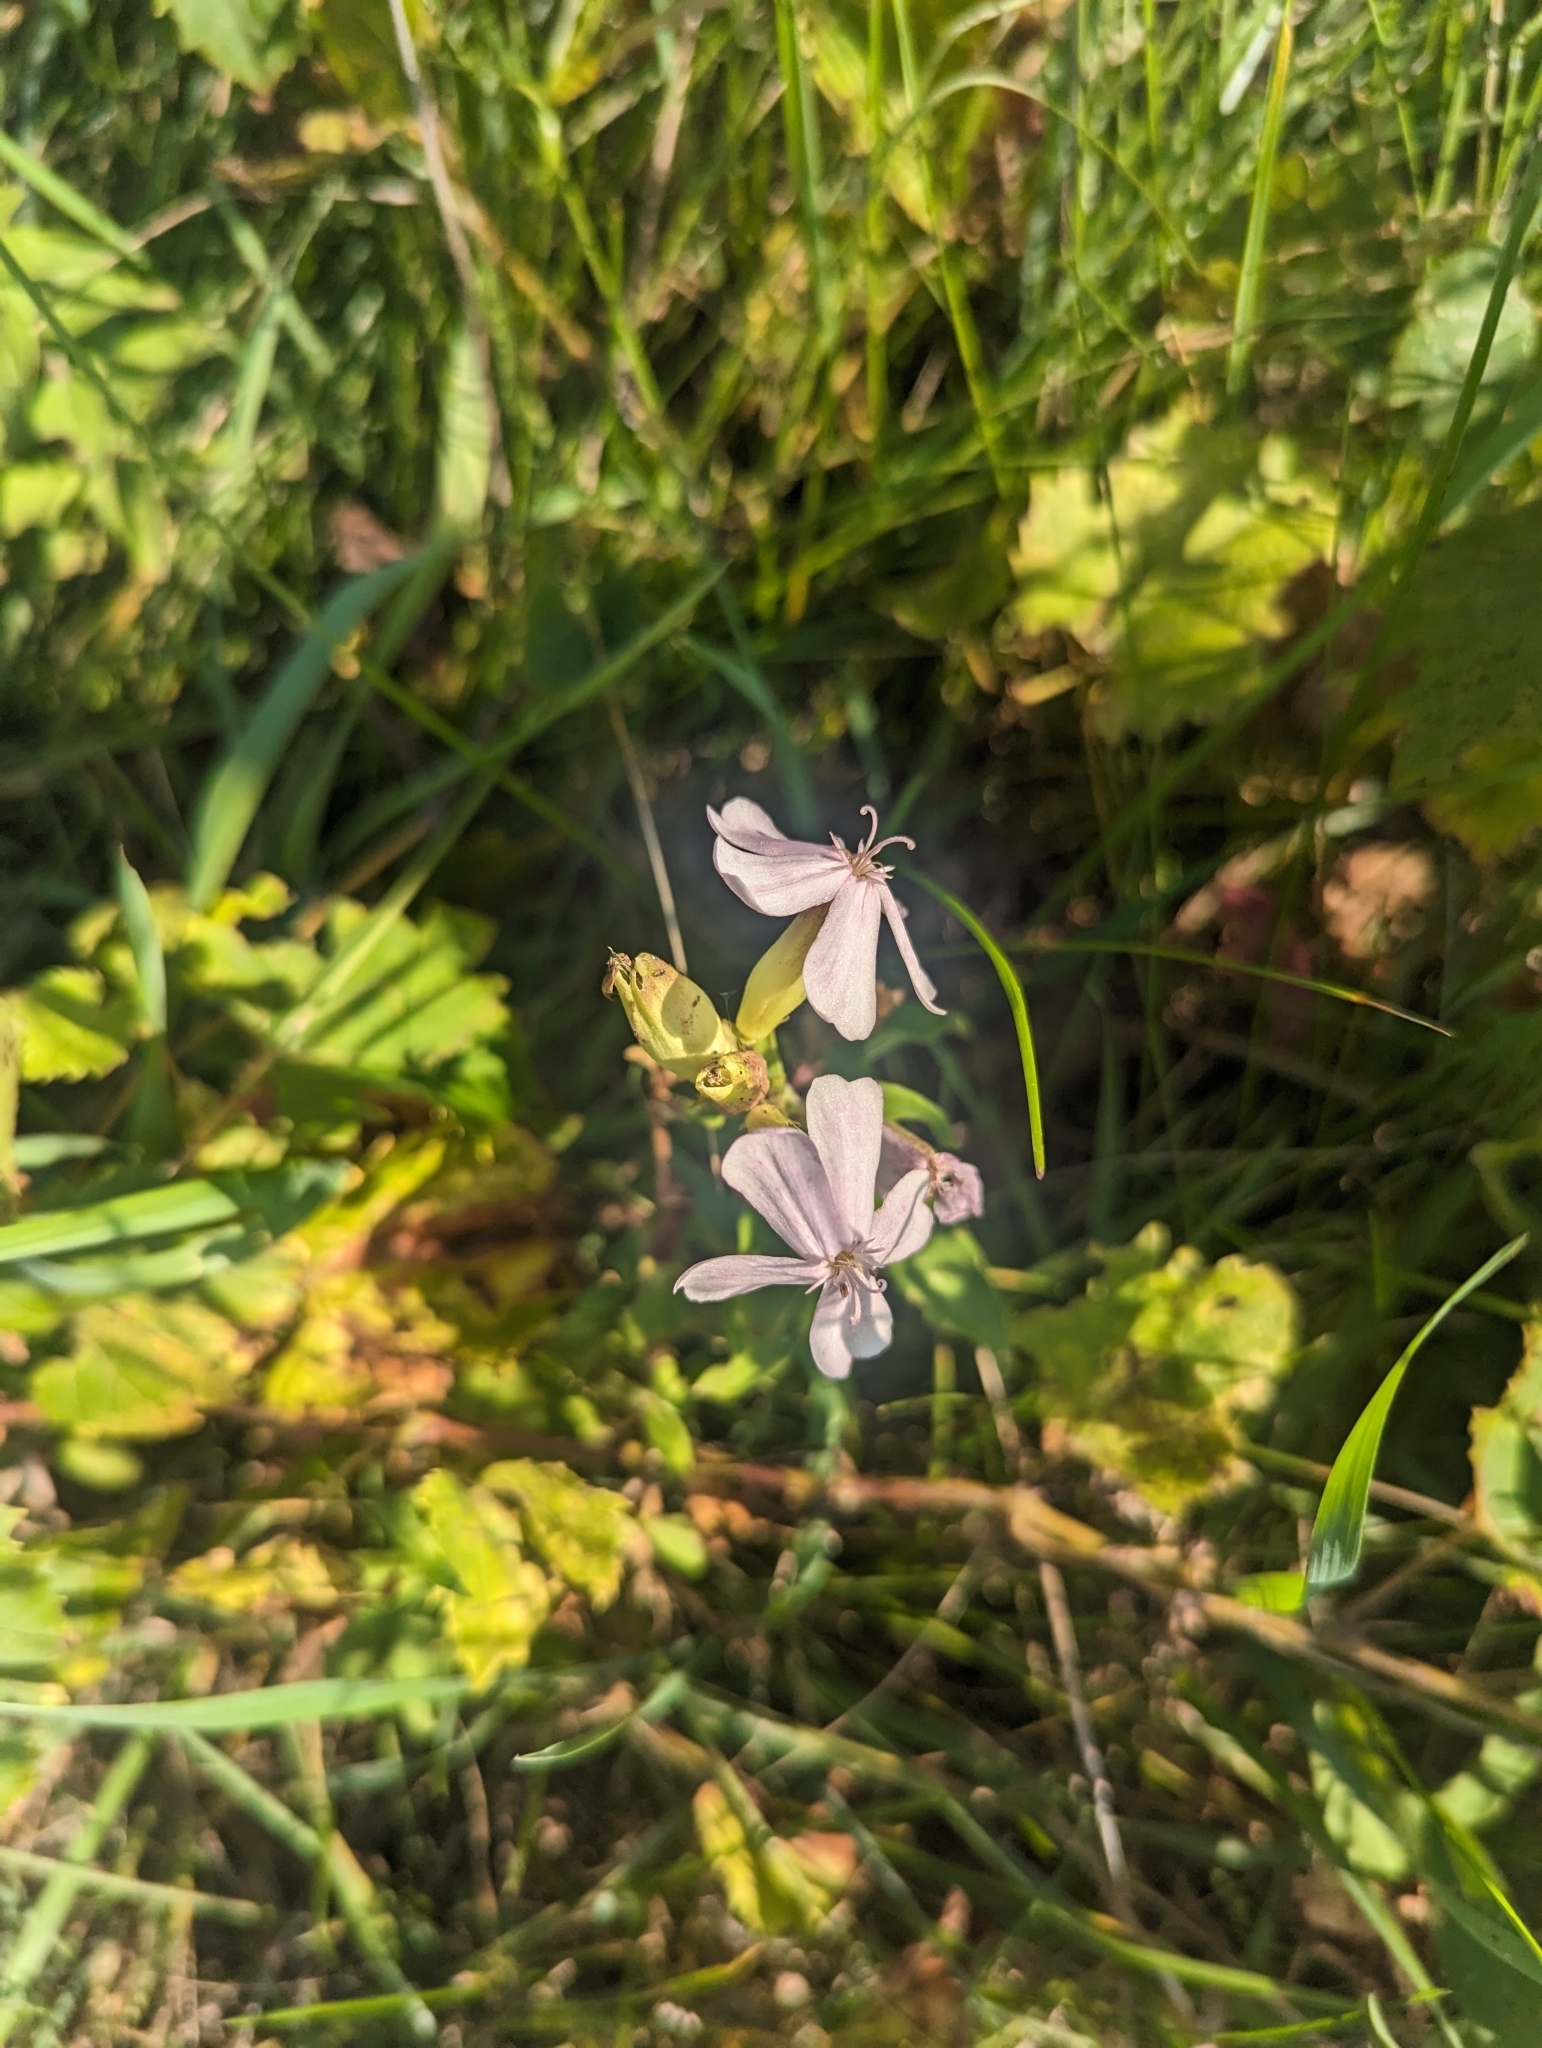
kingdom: Plantae
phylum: Tracheophyta
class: Magnoliopsida
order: Caryophyllales
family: Caryophyllaceae
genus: Saponaria
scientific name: Saponaria officinalis
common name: Soapwort
